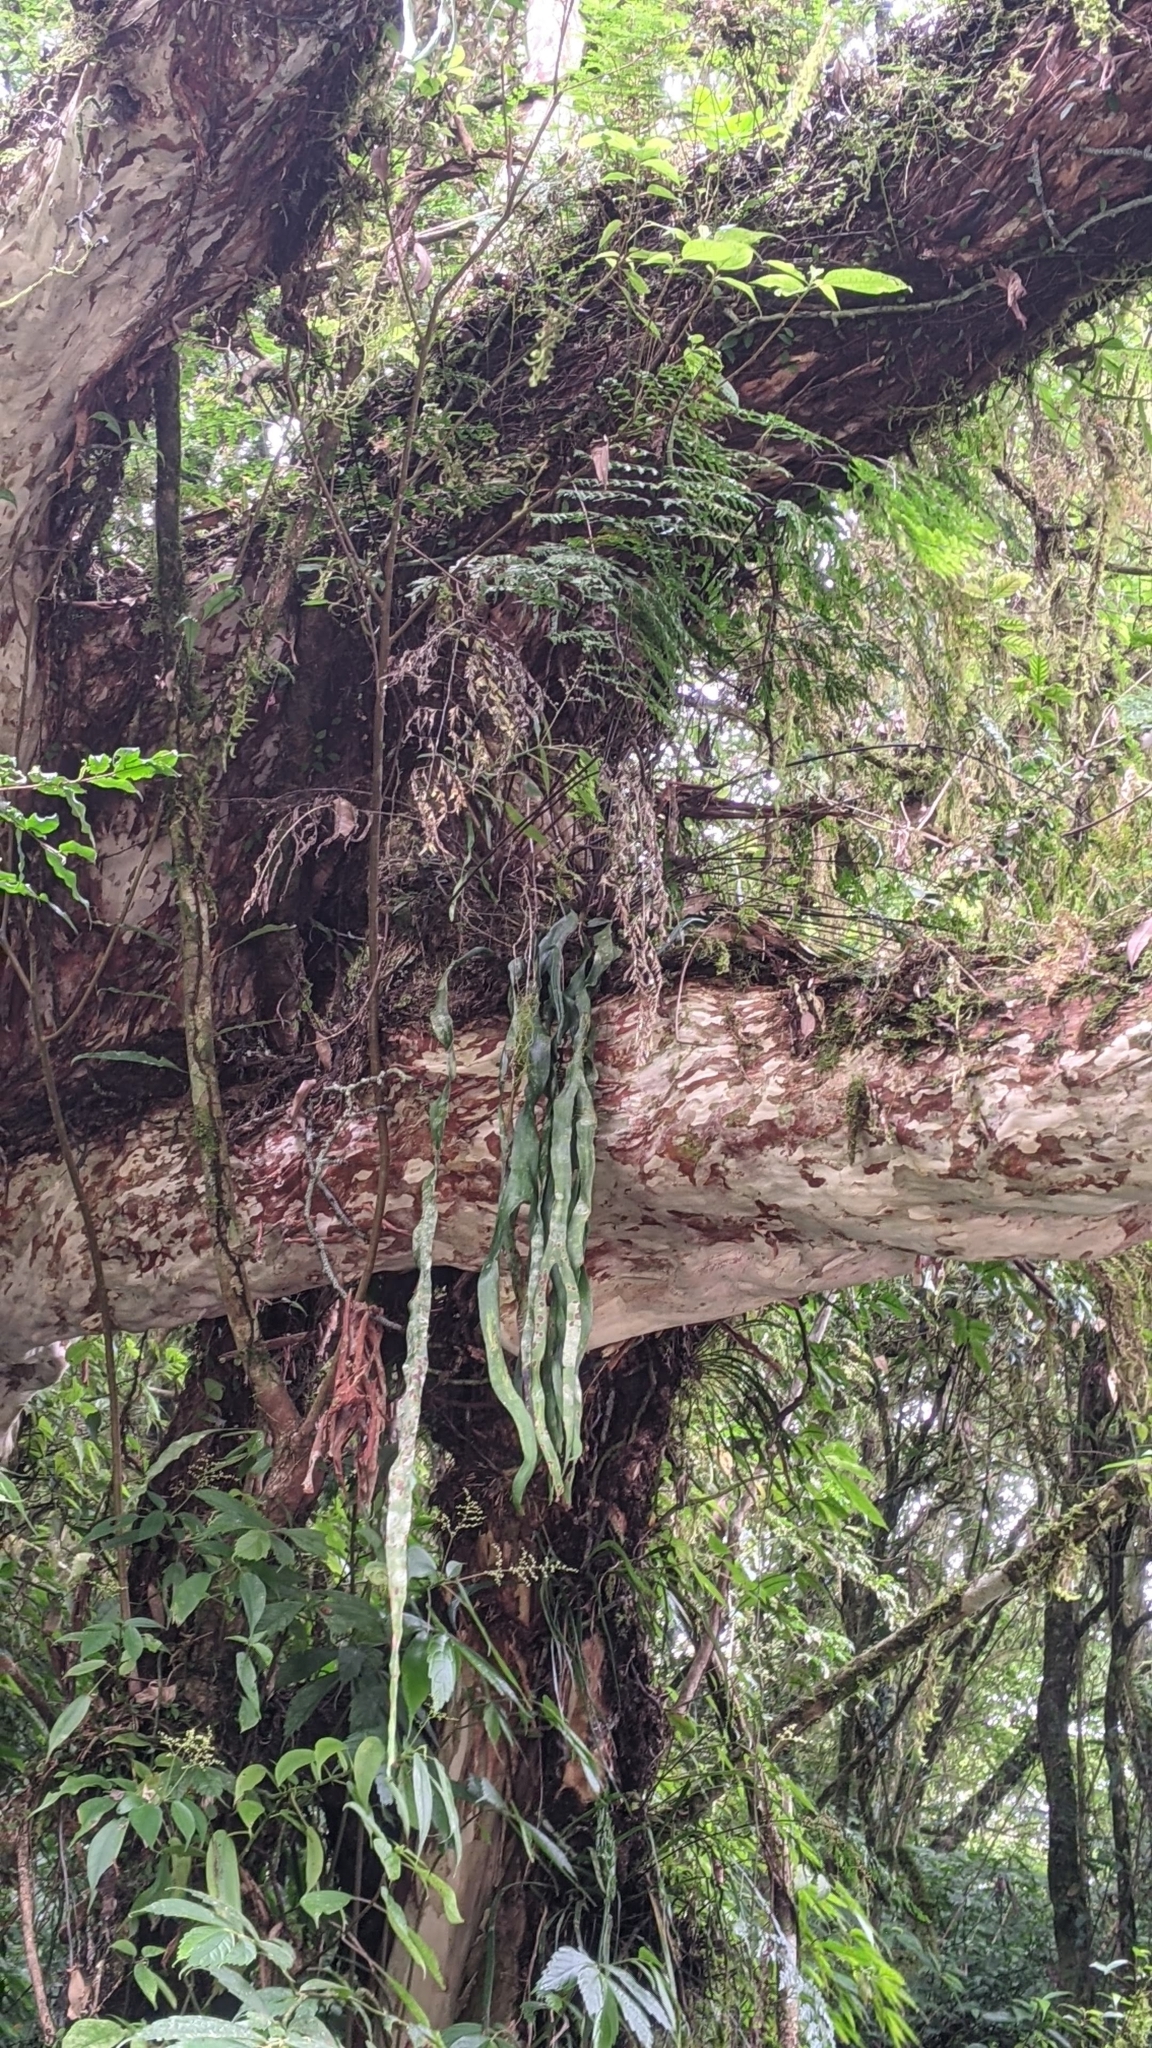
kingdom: Plantae
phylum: Tracheophyta
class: Polypodiopsida
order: Ophioglossales
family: Ophioglossaceae
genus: Ophioderma
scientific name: Ophioderma pendulum
